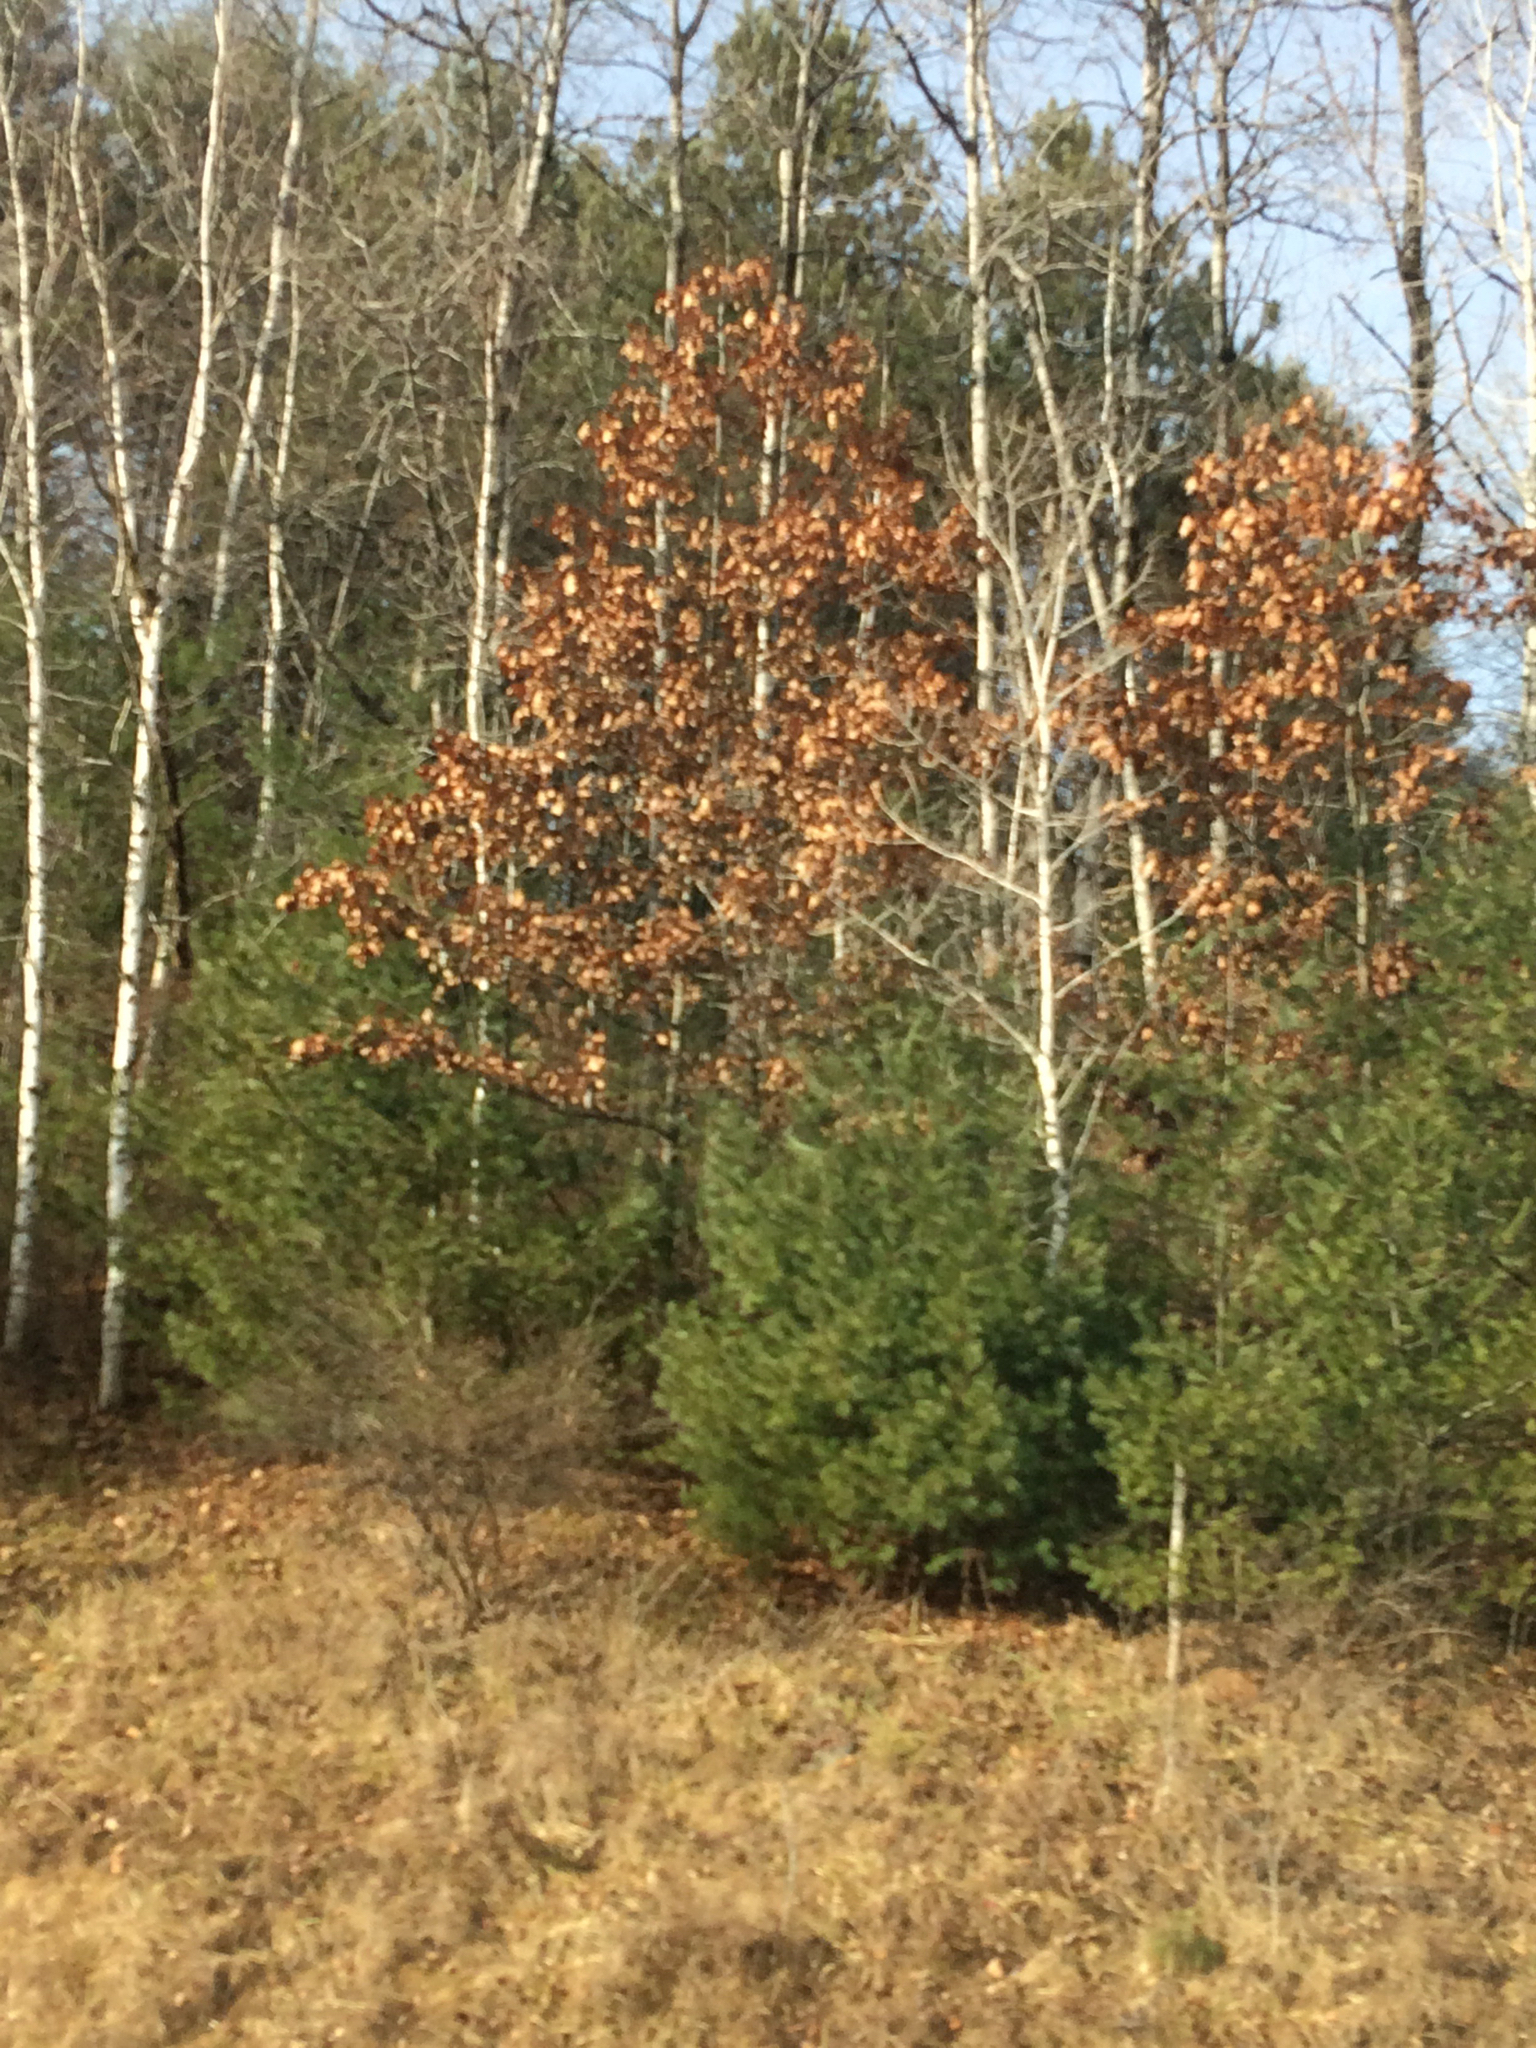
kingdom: Plantae
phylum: Tracheophyta
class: Magnoliopsida
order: Fagales
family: Fagaceae
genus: Quercus
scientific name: Quercus rubra
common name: Red oak
